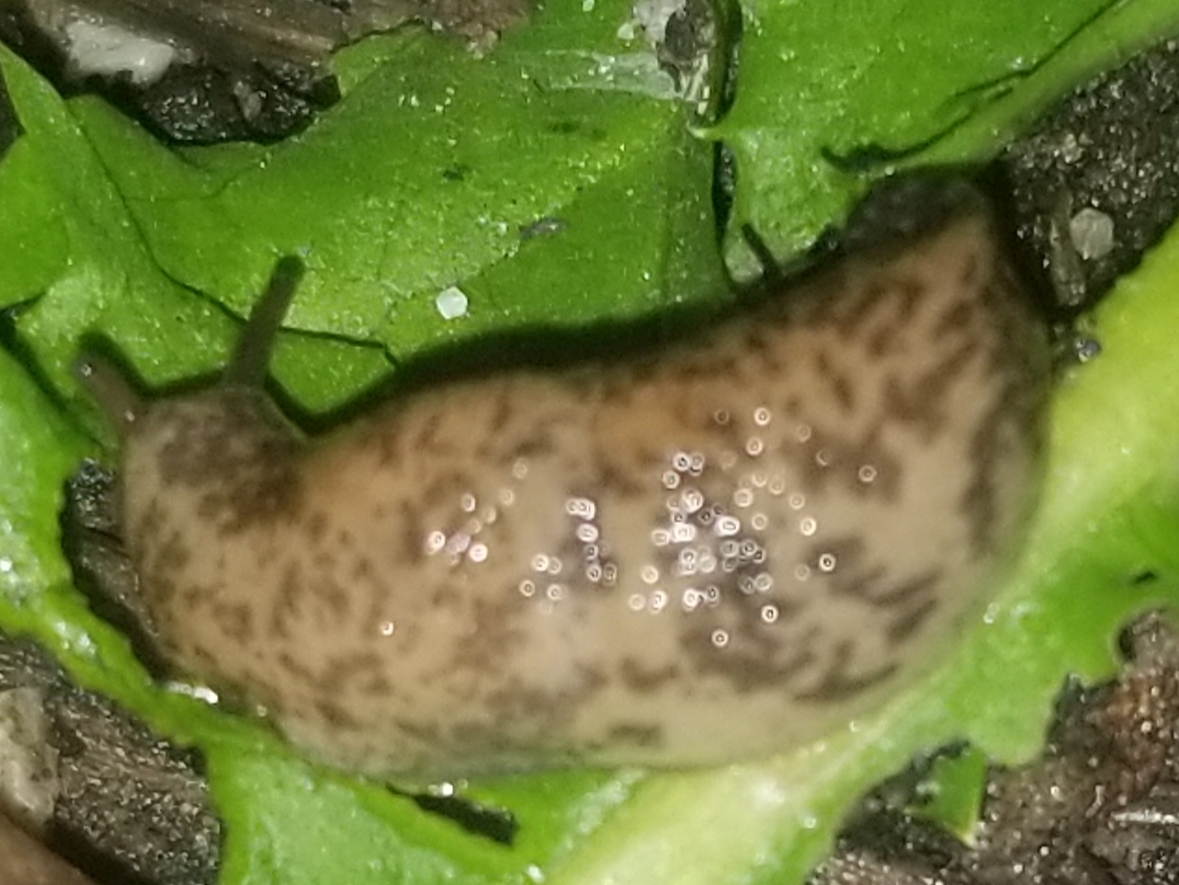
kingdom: Animalia
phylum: Mollusca
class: Gastropoda
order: Stylommatophora
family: Agriolimacidae
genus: Deroceras
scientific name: Deroceras reticulatum
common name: Gray field slug
